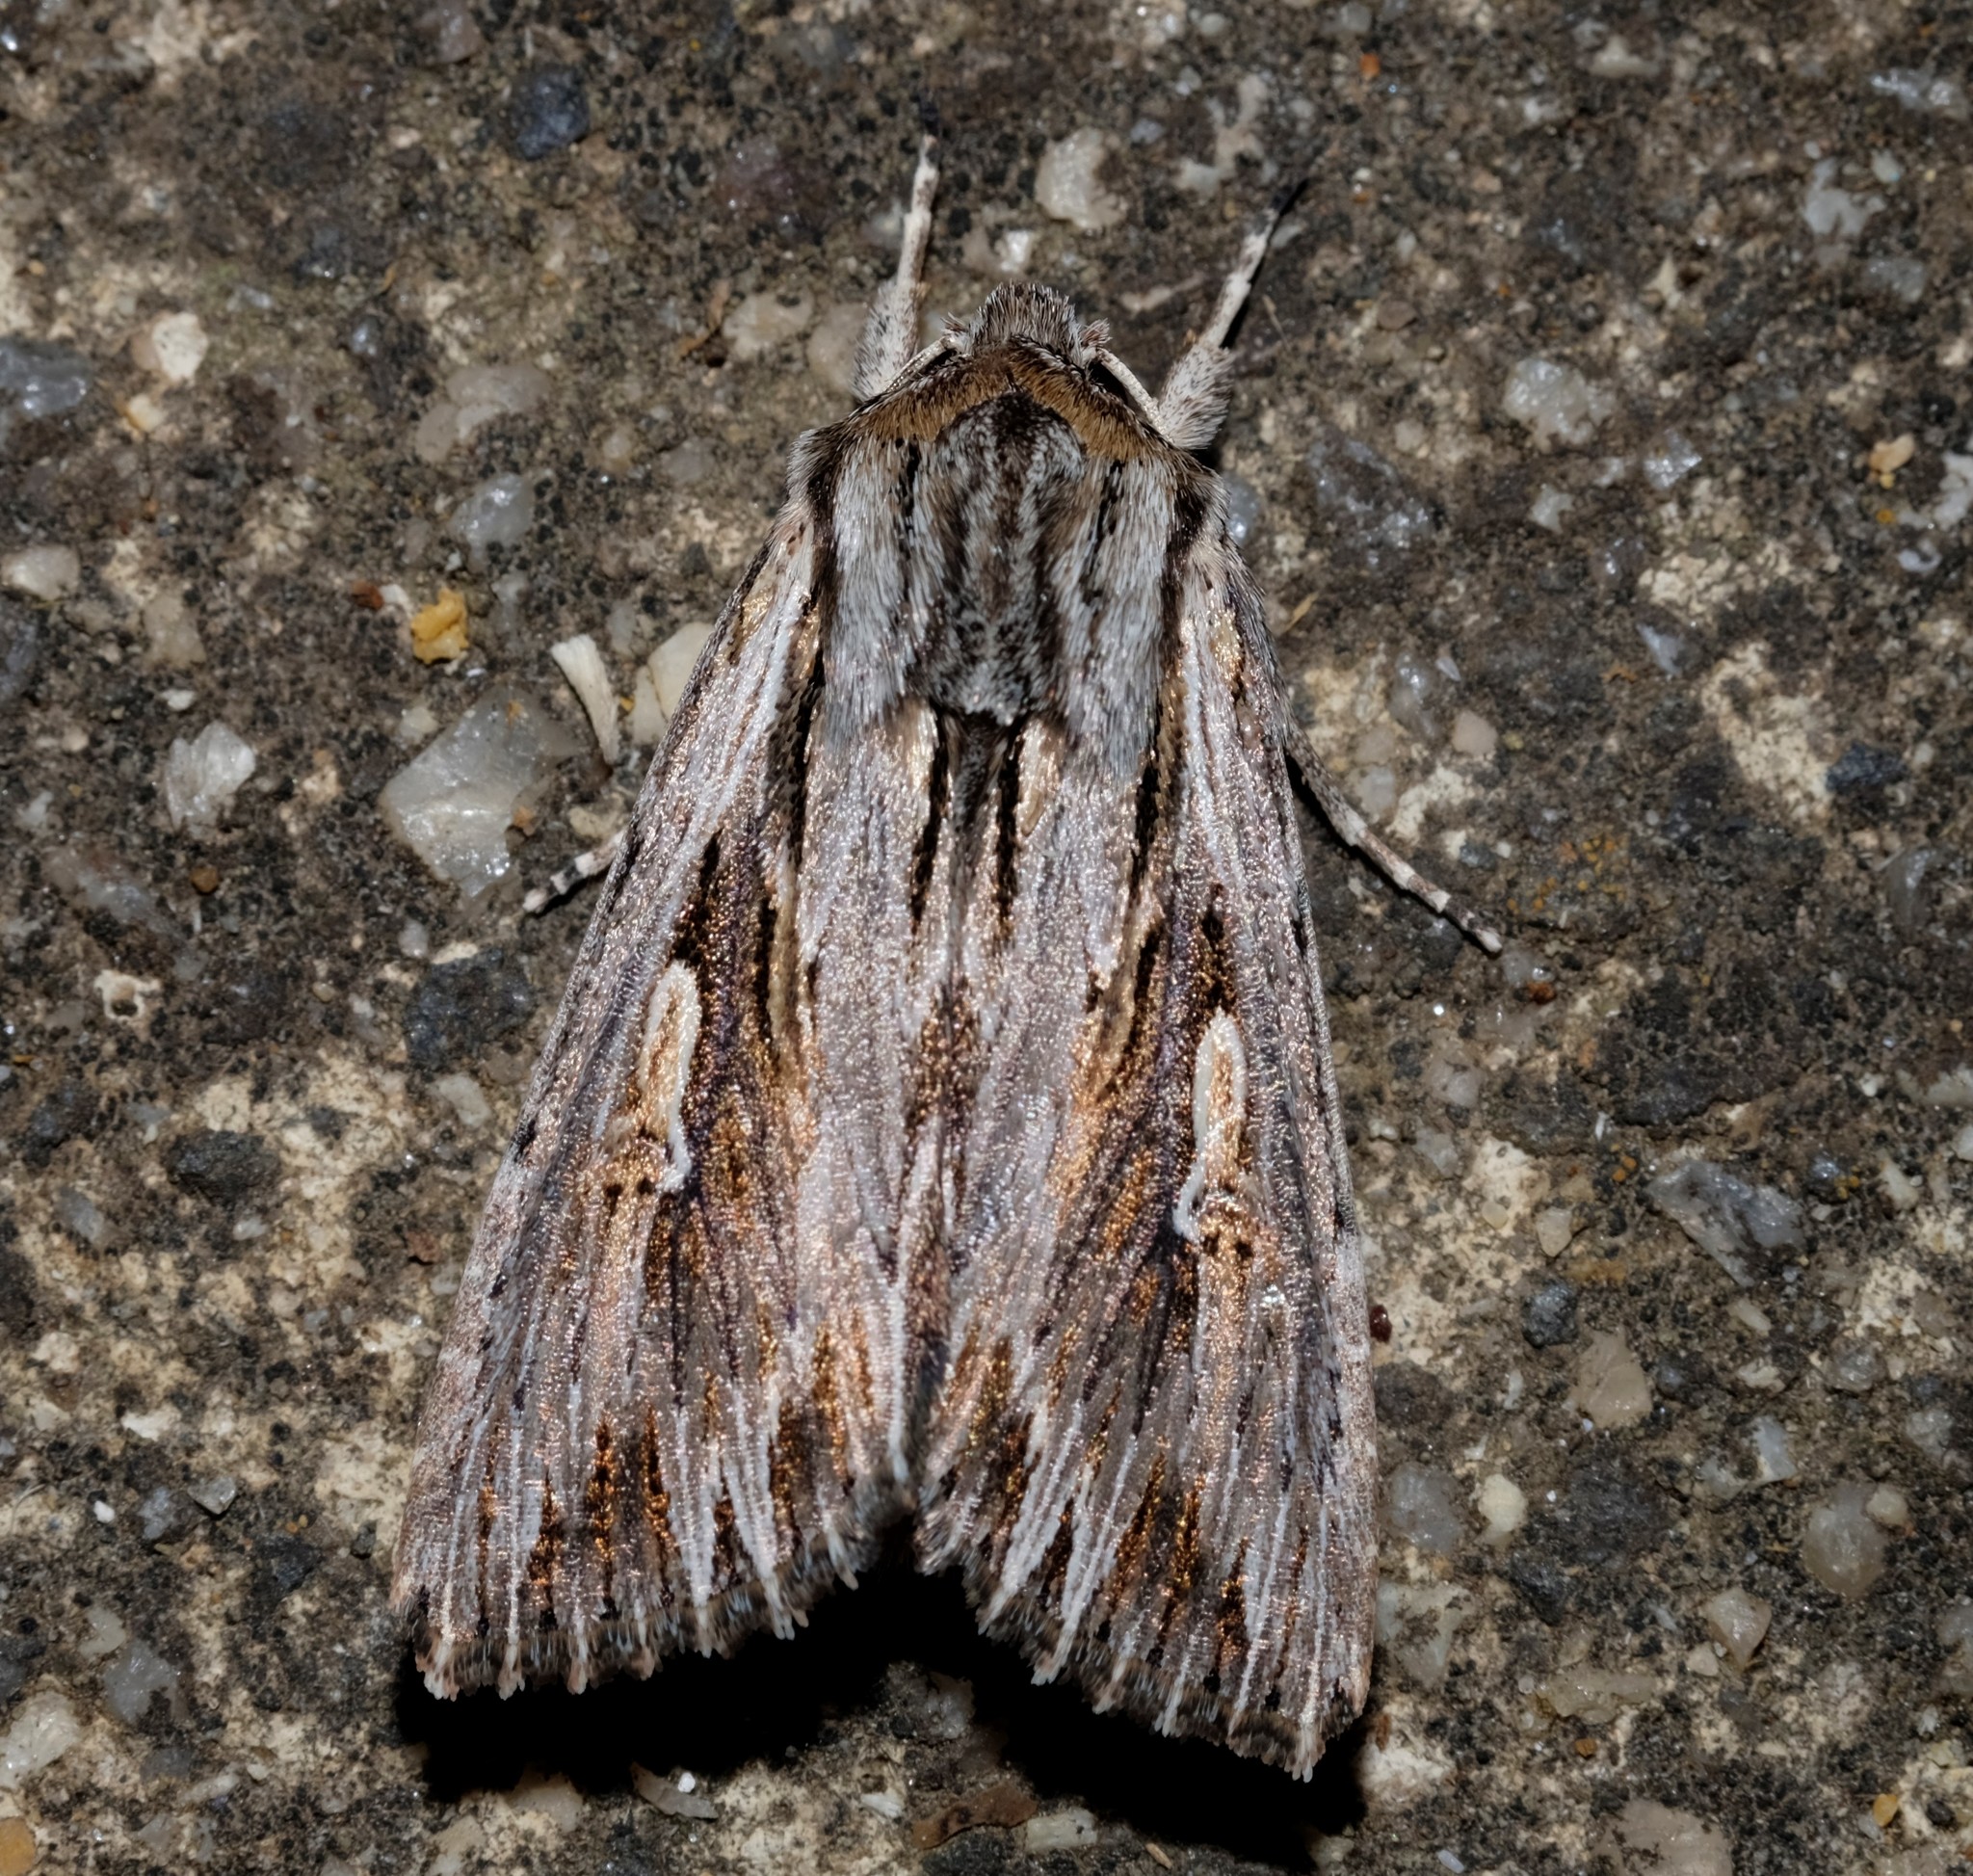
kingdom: Animalia
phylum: Arthropoda
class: Insecta
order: Lepidoptera
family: Noctuidae
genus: Persectania
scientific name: Persectania ewingii
